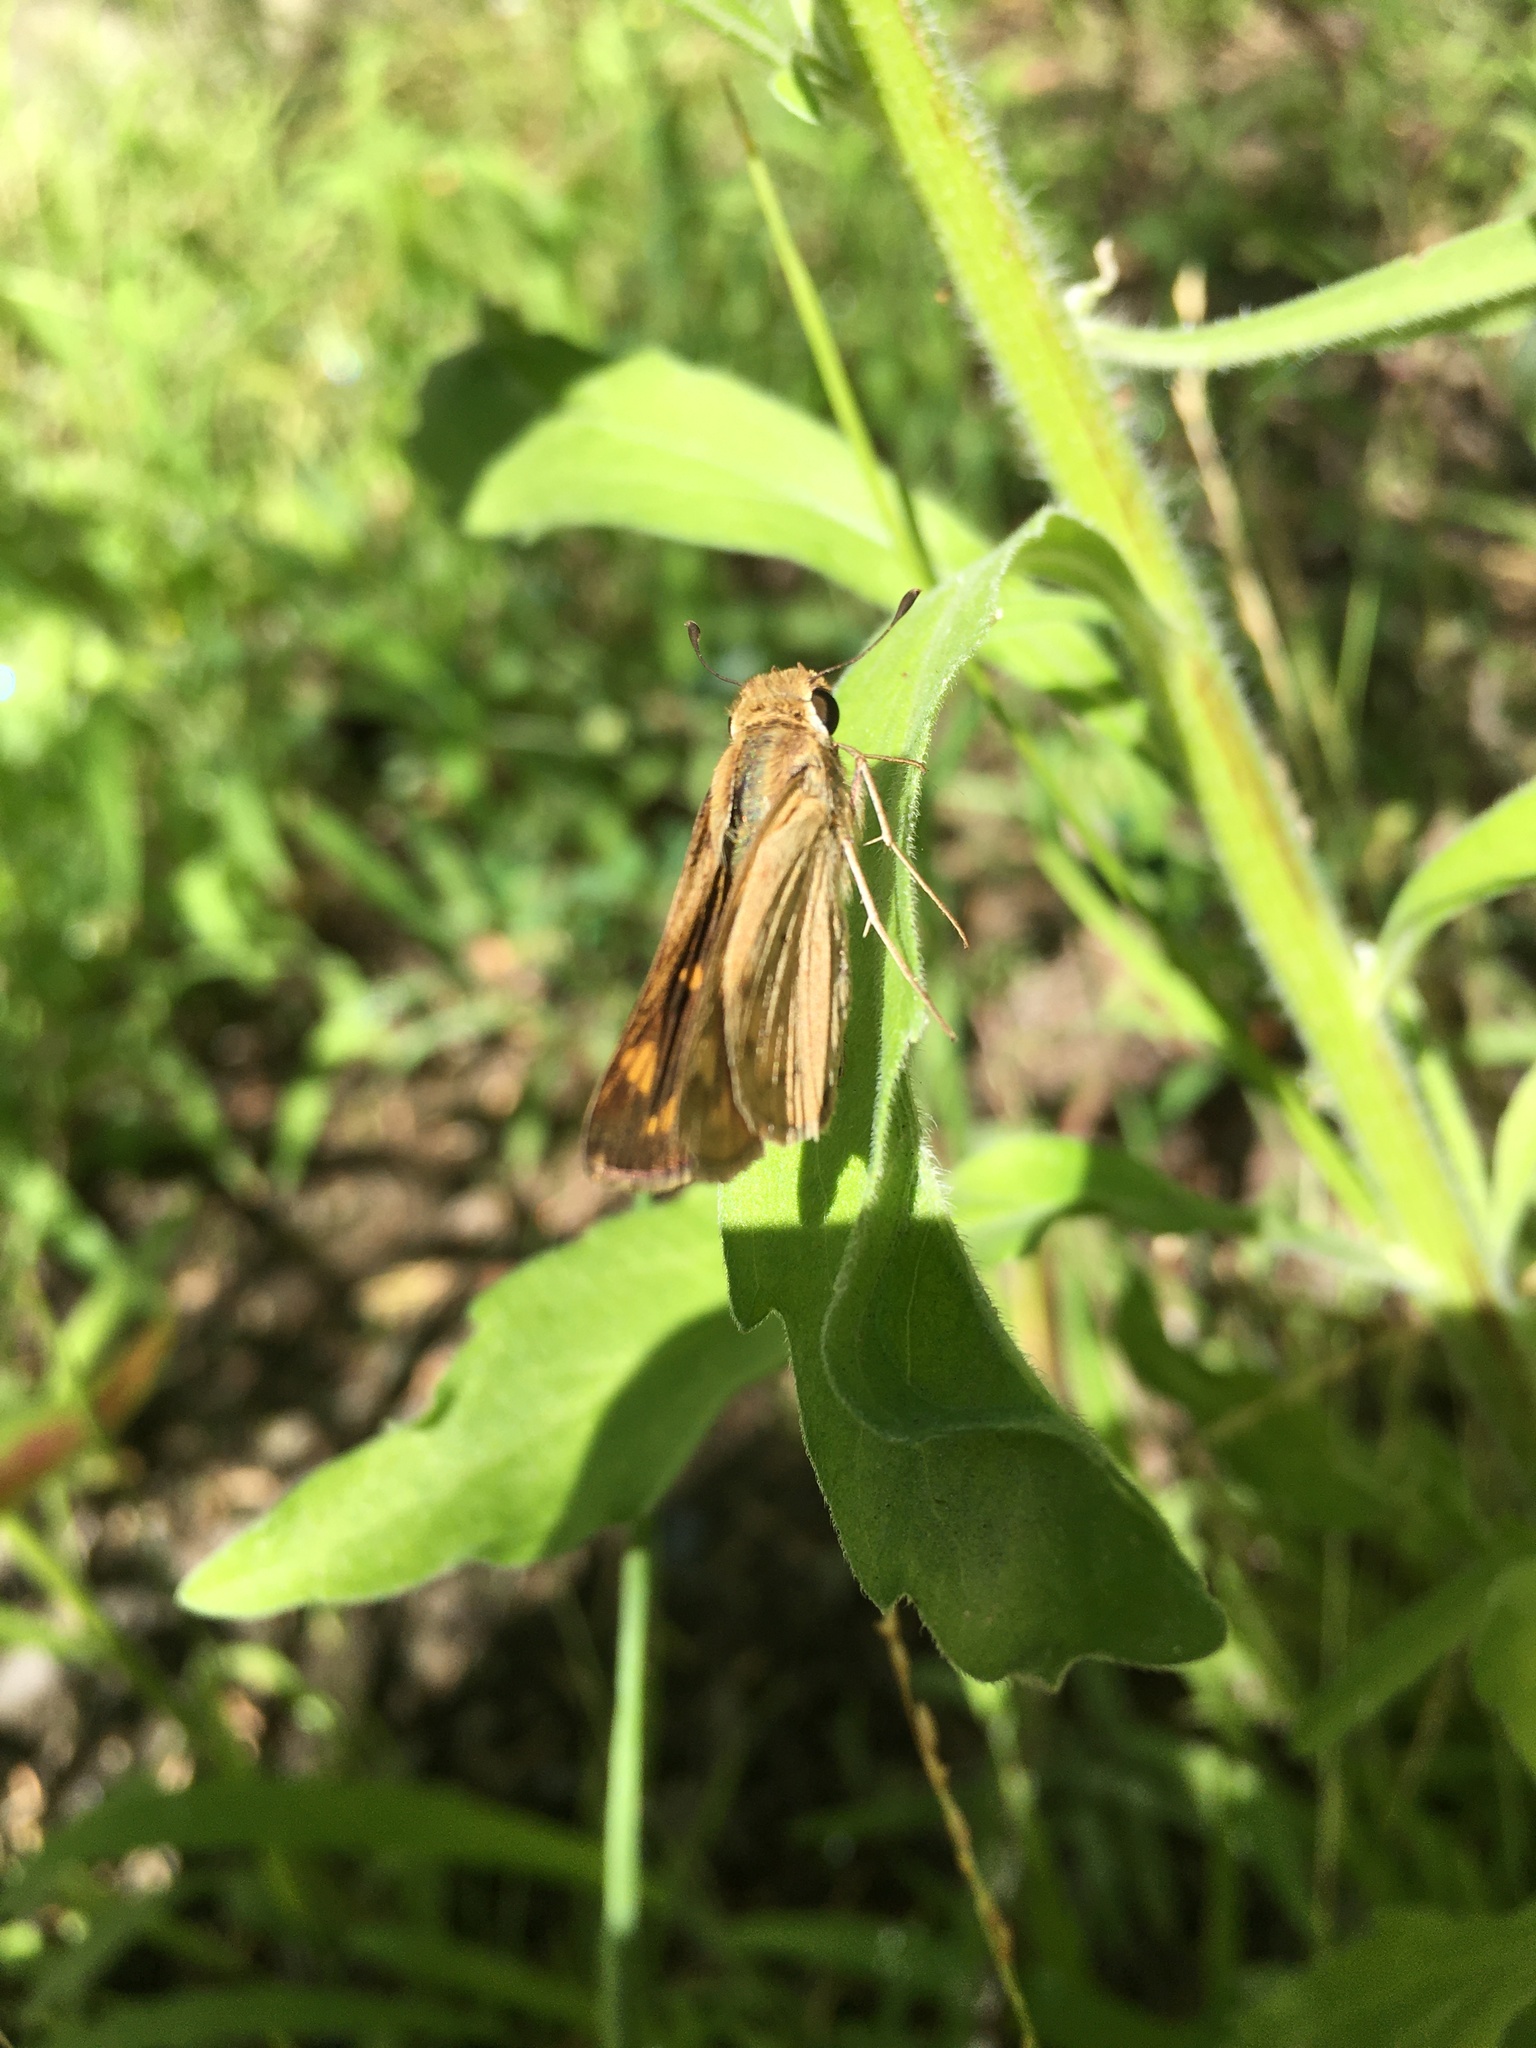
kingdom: Animalia
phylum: Arthropoda
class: Insecta
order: Lepidoptera
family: Hesperiidae
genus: Hylephila
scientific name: Hylephila phyleus
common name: Fiery skipper
